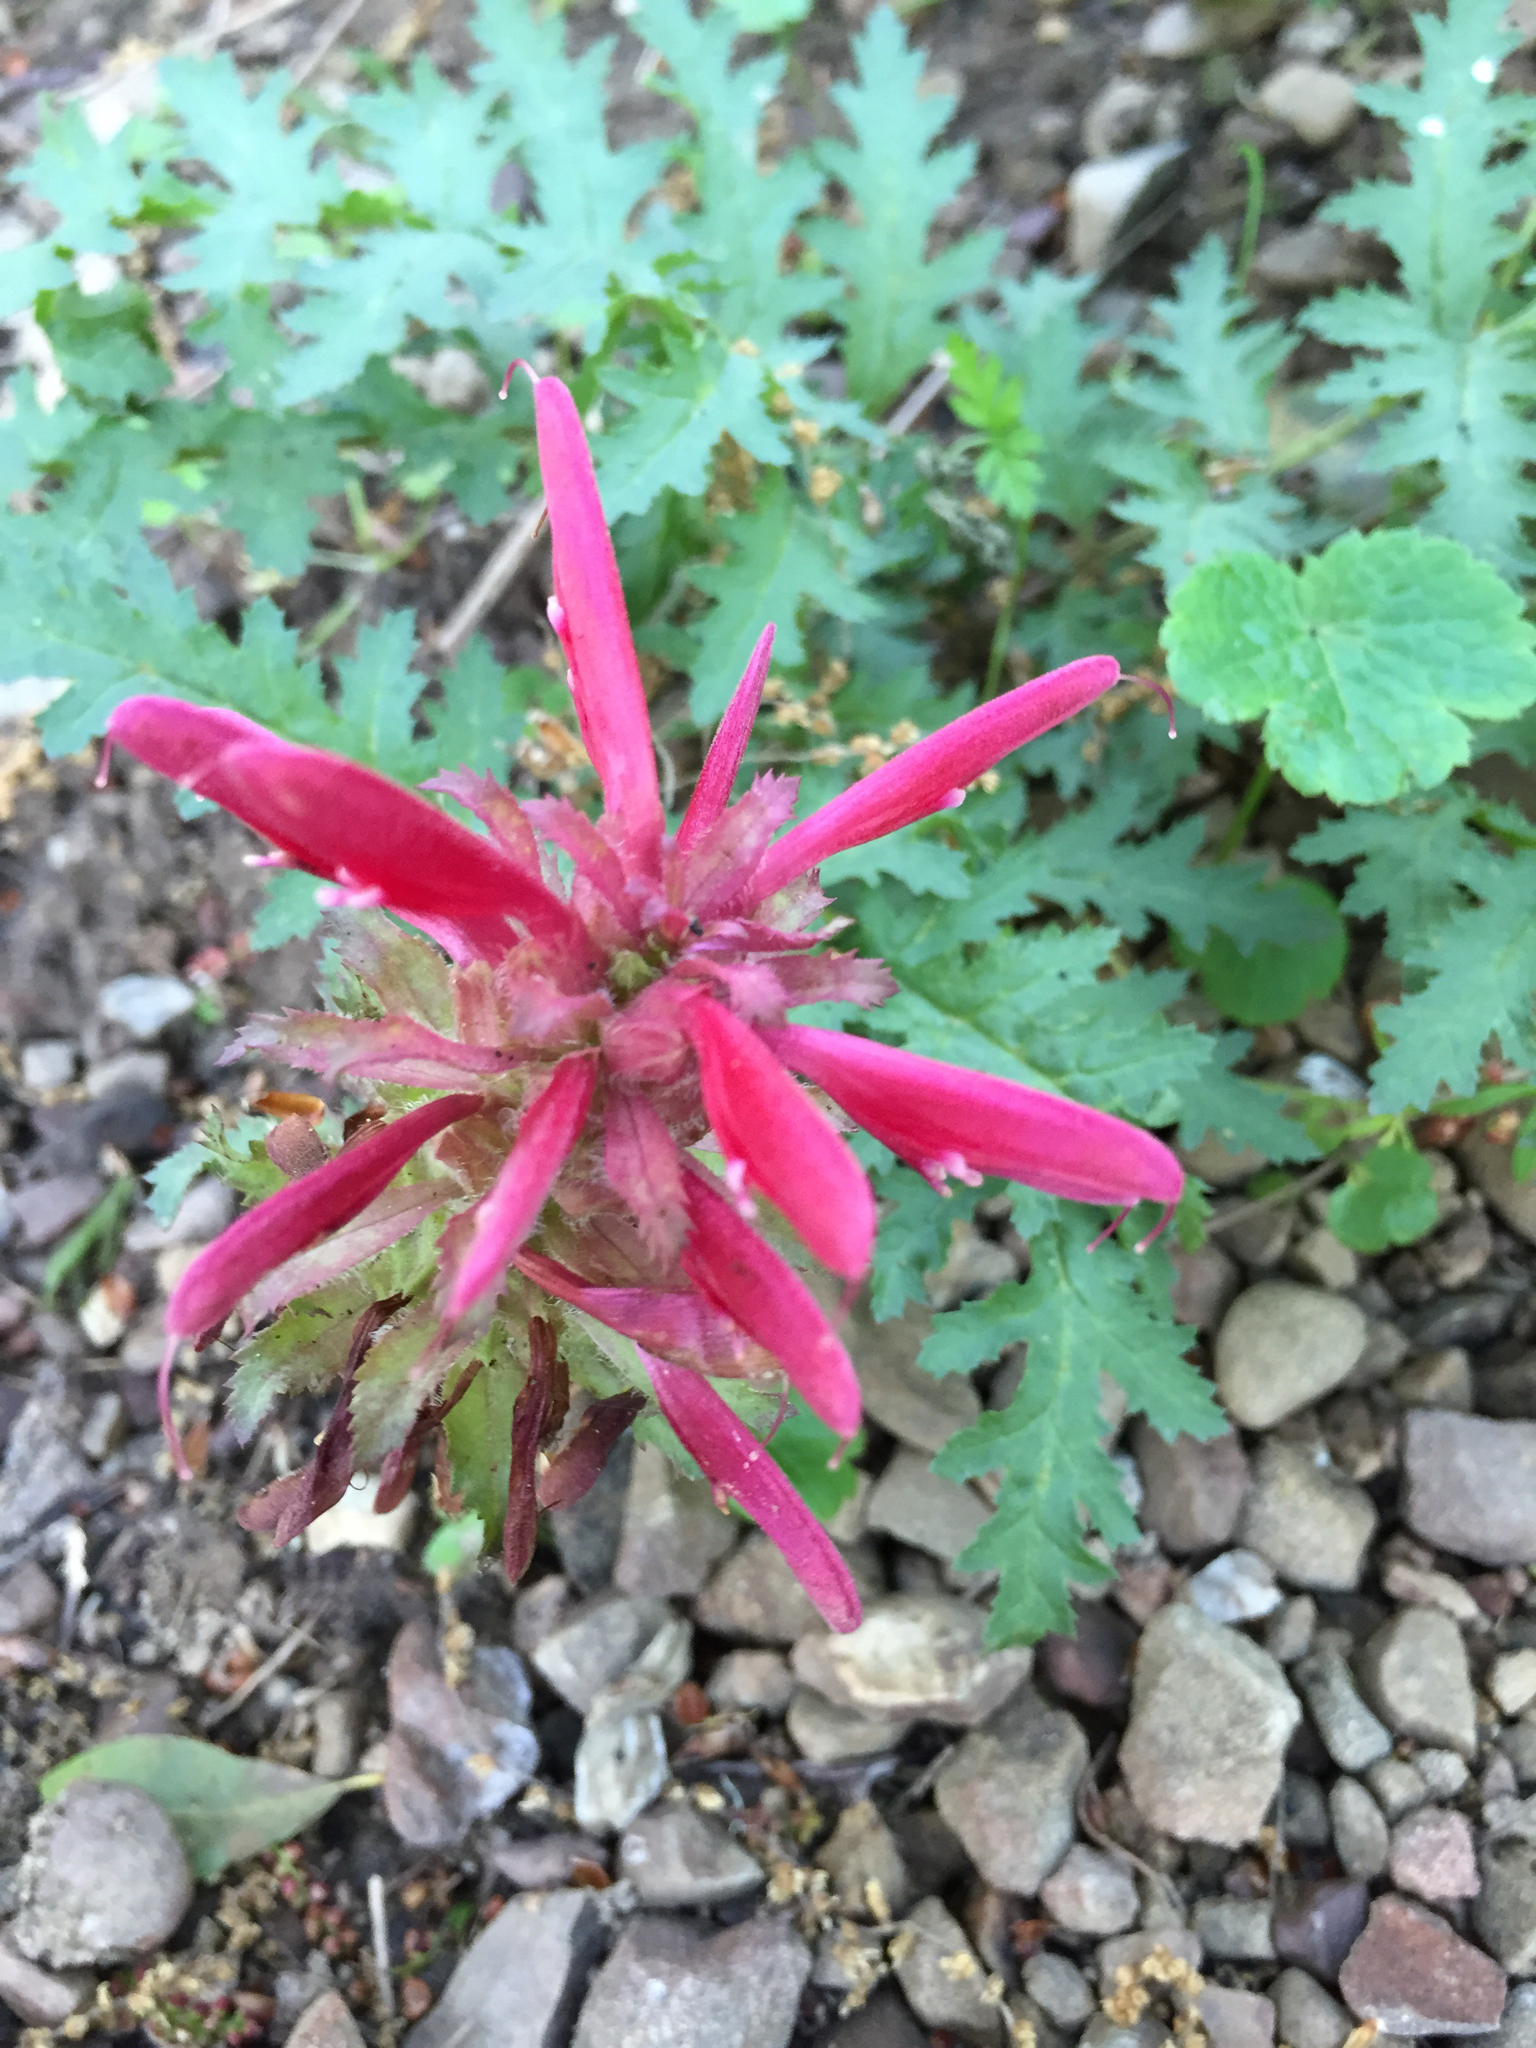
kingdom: Plantae
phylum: Tracheophyta
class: Magnoliopsida
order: Lamiales
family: Orobanchaceae
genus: Pedicularis
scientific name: Pedicularis densiflora
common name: Indian warrior
